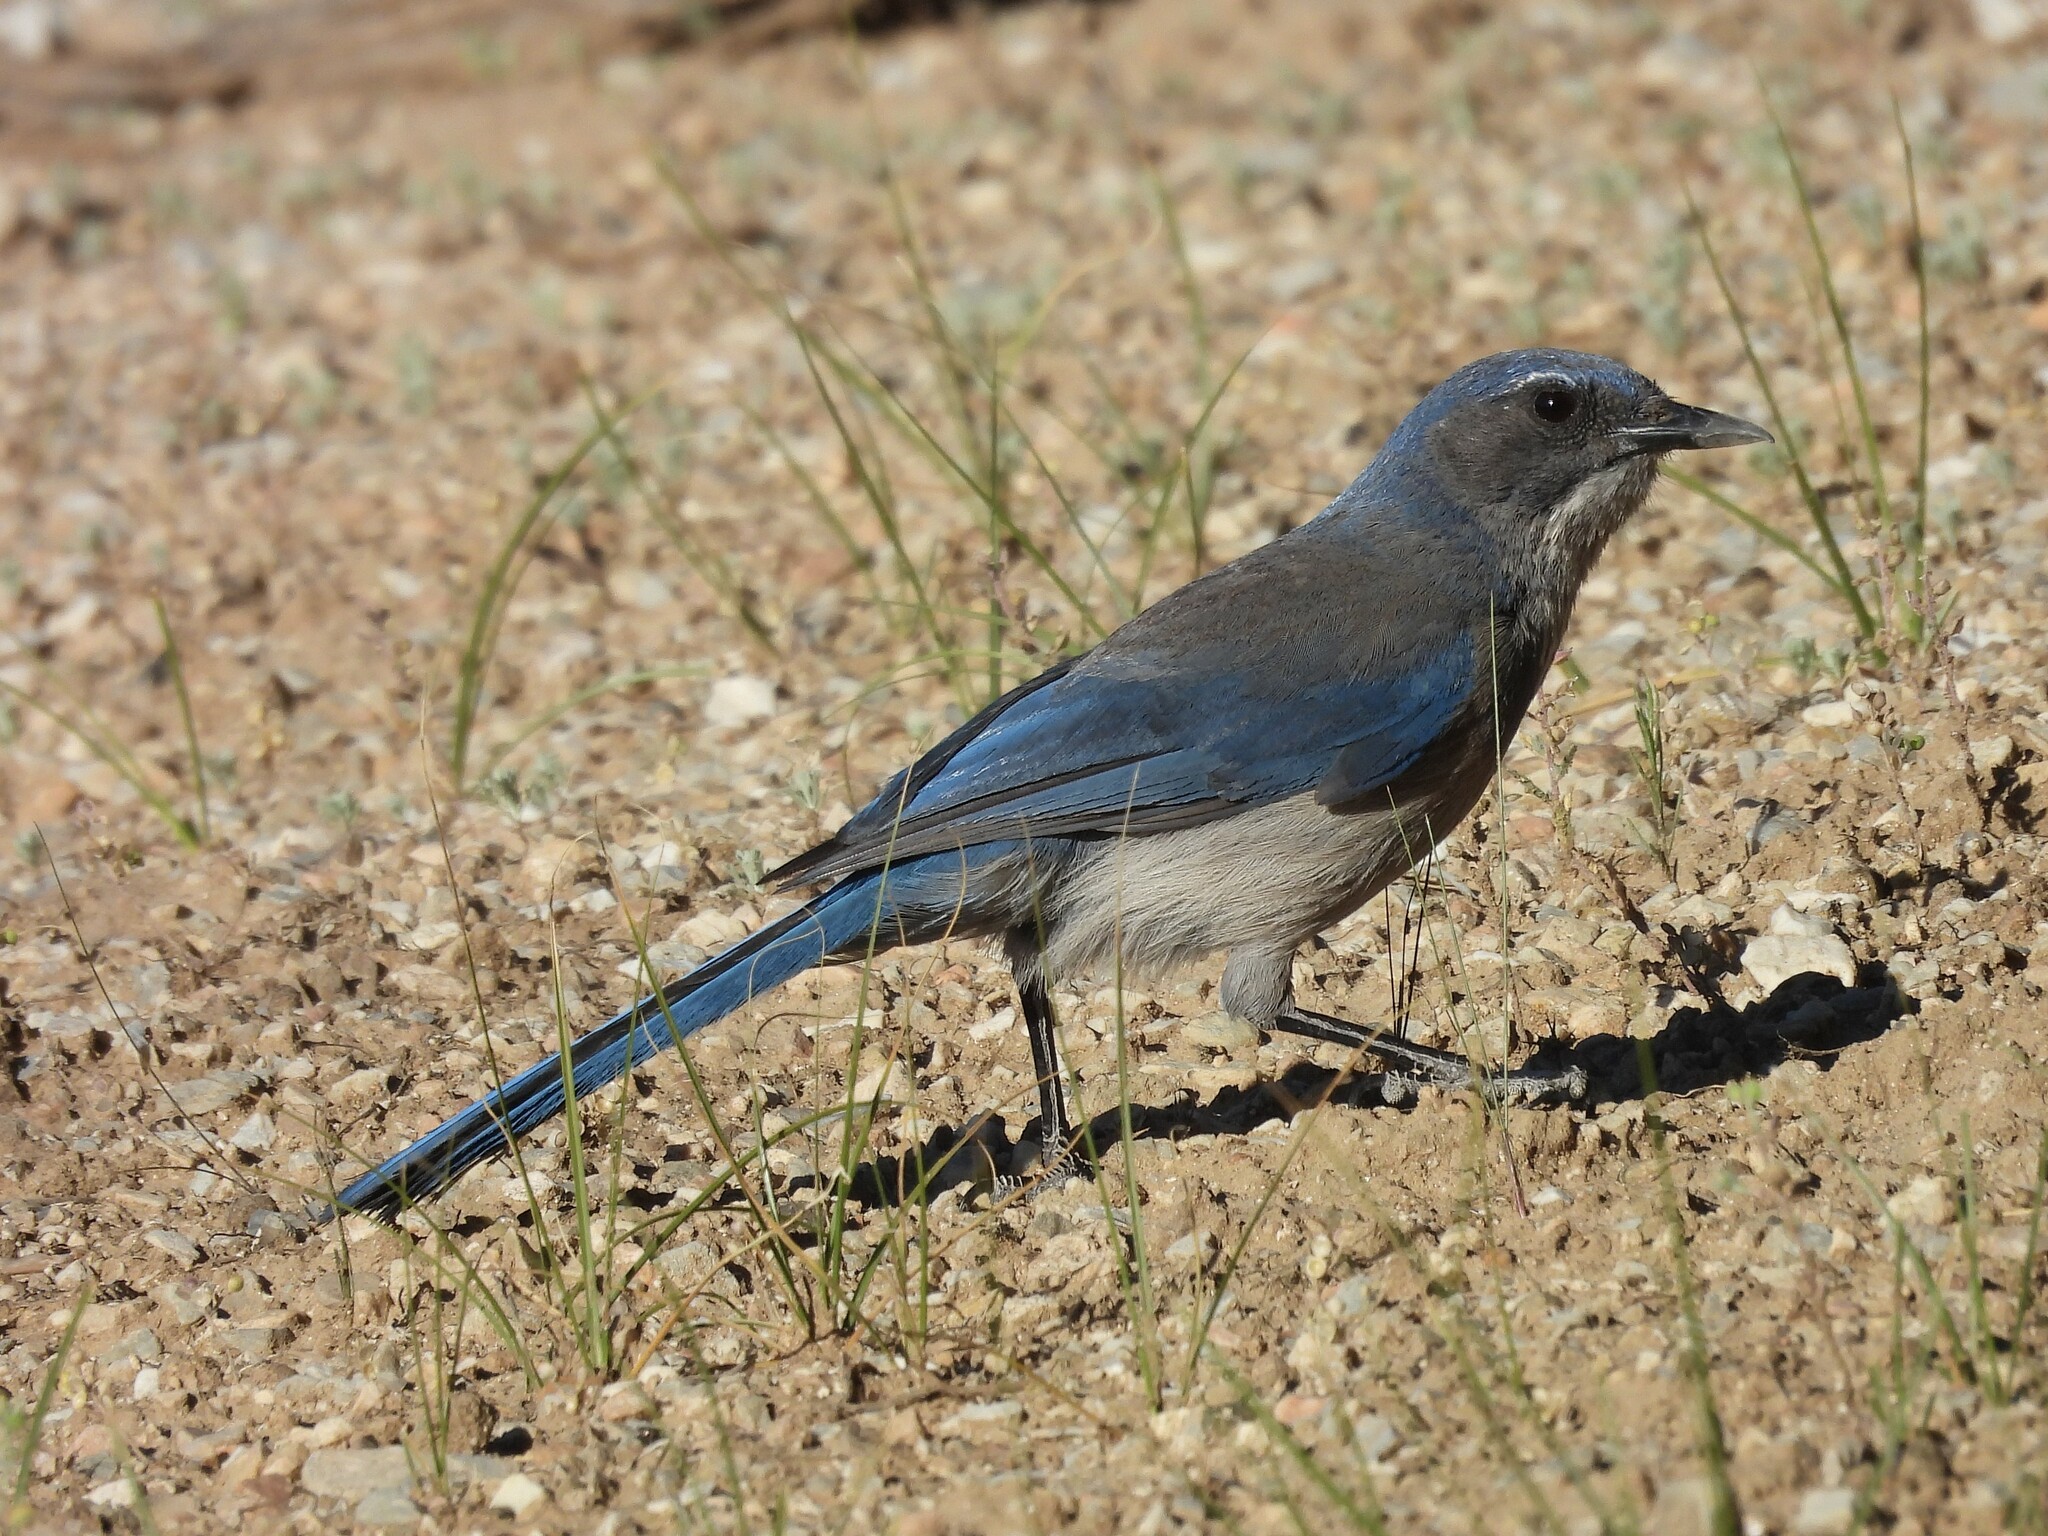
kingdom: Animalia
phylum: Chordata
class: Aves
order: Passeriformes
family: Corvidae
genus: Aphelocoma
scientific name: Aphelocoma woodhouseii
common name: Woodhouse's scrub-jay
